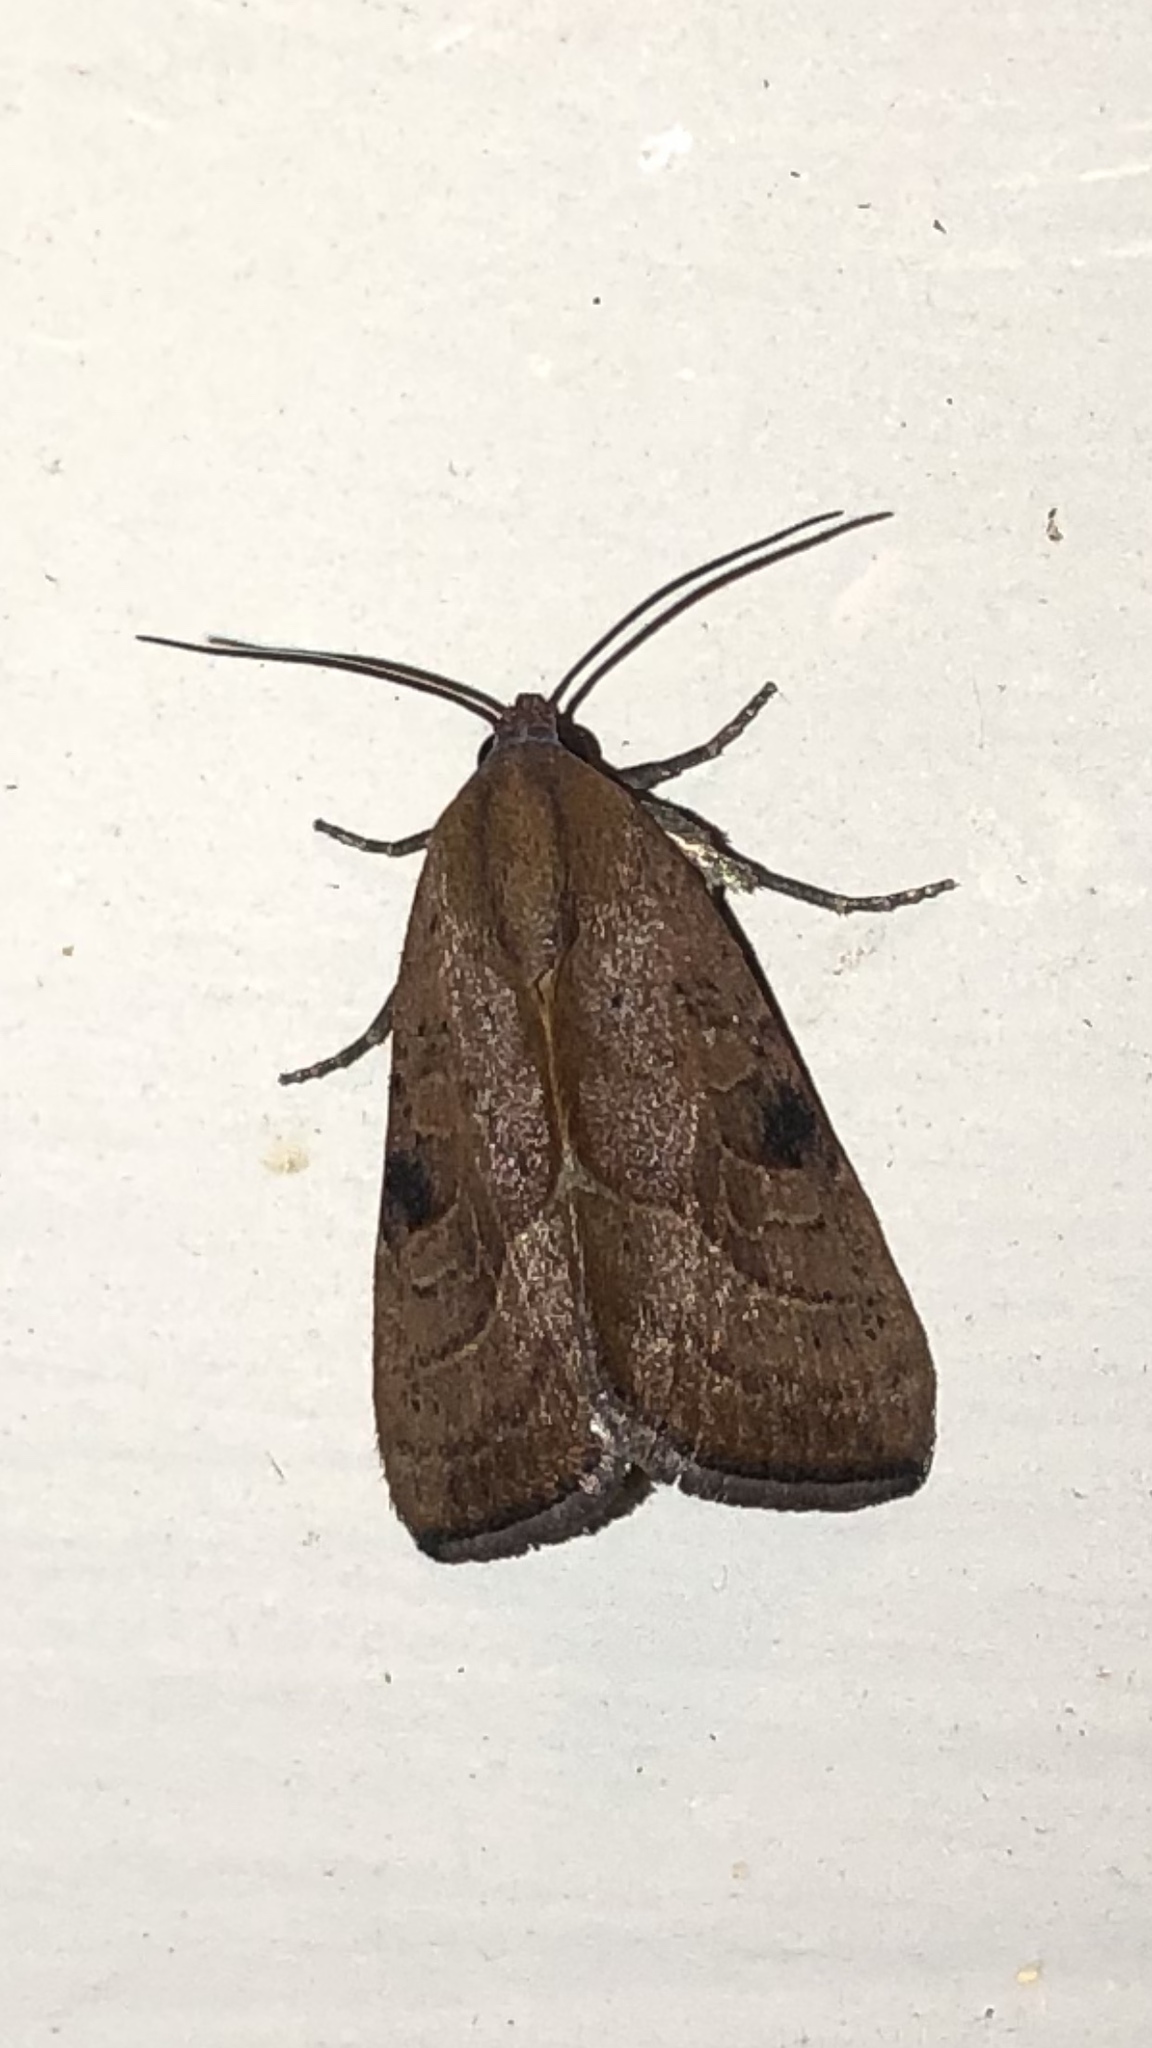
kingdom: Animalia
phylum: Arthropoda
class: Insecta
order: Lepidoptera
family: Noctuidae
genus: Galgula
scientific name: Galgula partita
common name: Wedgeling
